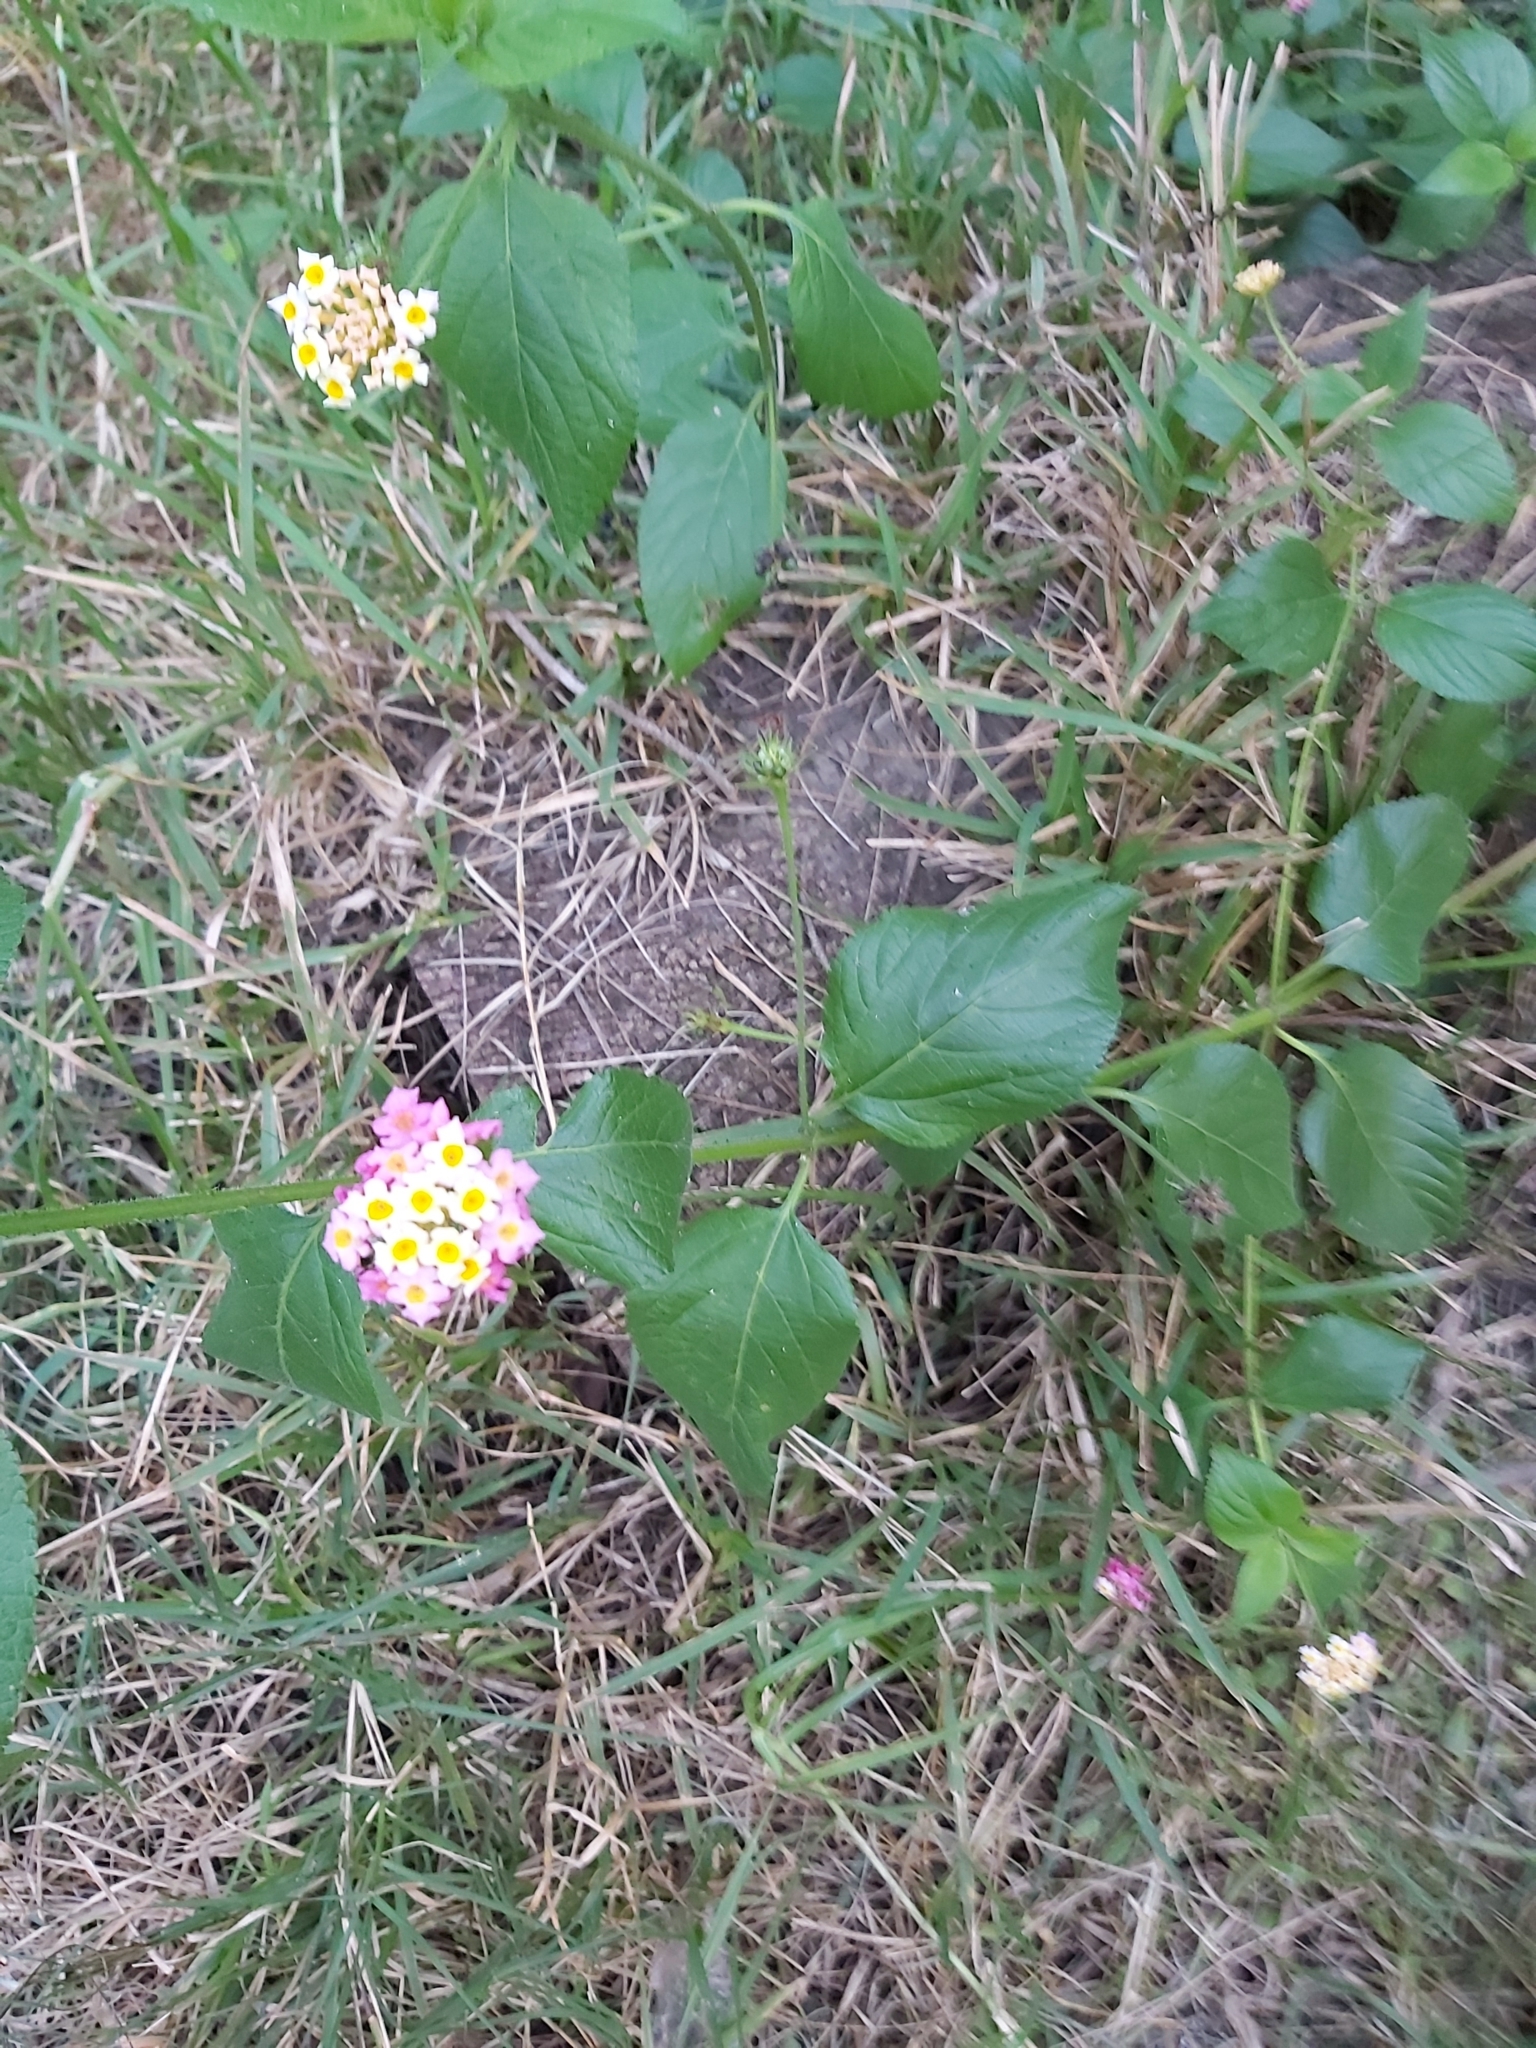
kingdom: Plantae
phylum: Tracheophyta
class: Magnoliopsida
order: Lamiales
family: Verbenaceae
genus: Lantana
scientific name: Lantana camara
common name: Lantana
